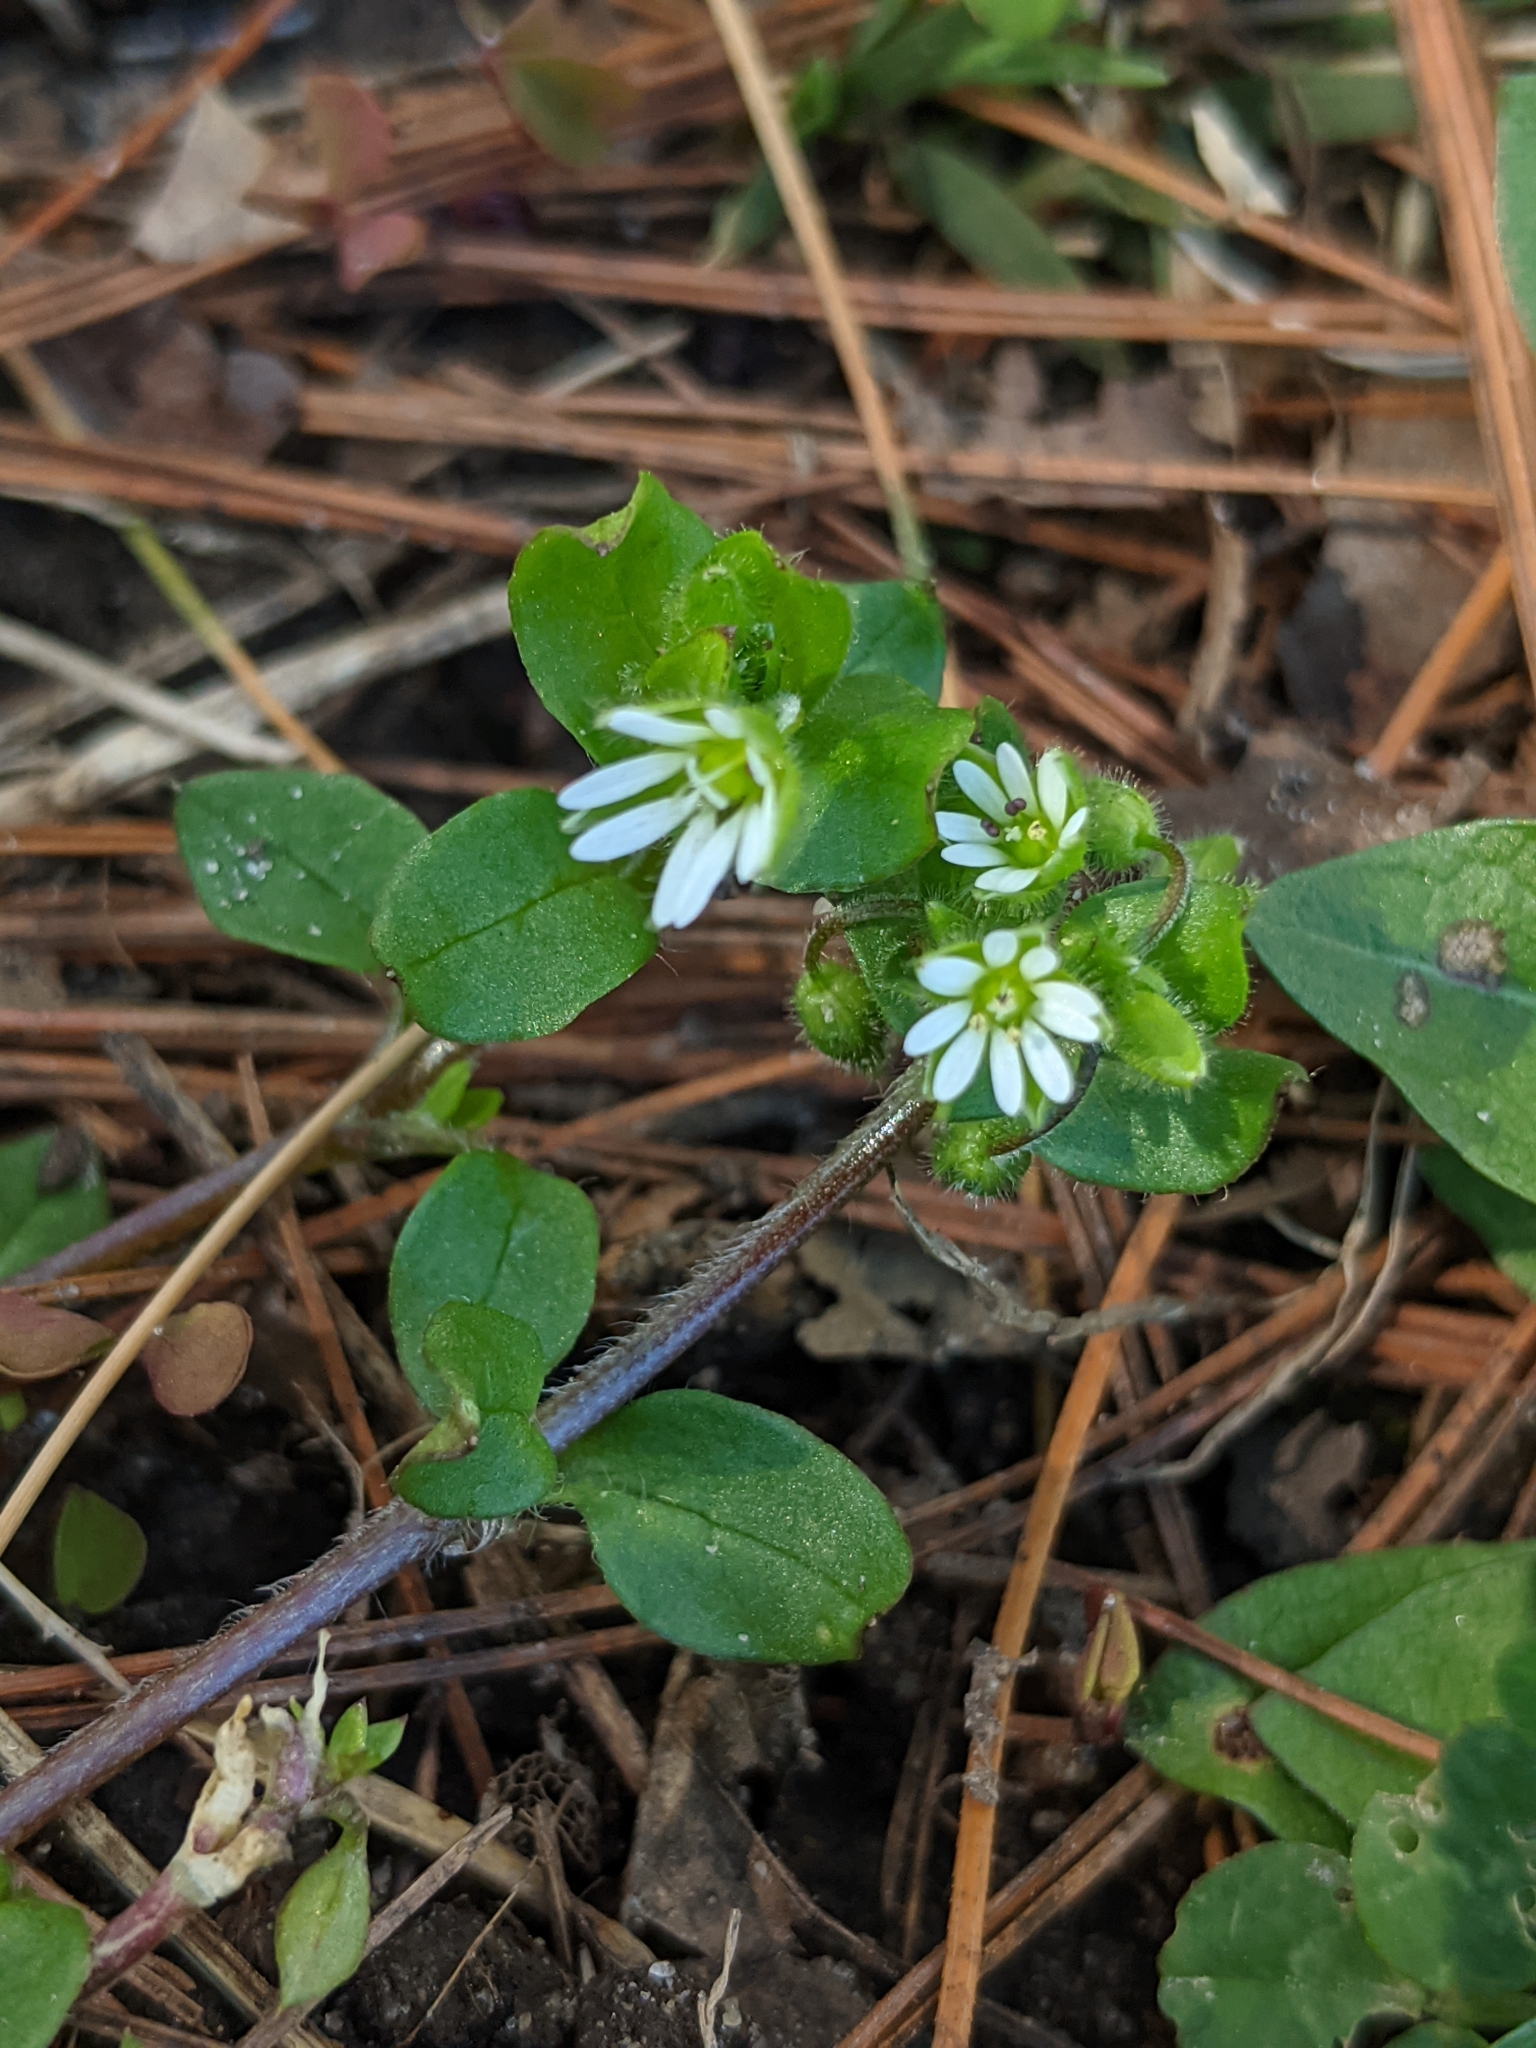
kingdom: Plantae
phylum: Tracheophyta
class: Magnoliopsida
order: Caryophyllales
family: Caryophyllaceae
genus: Stellaria
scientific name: Stellaria media
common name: Common chickweed
